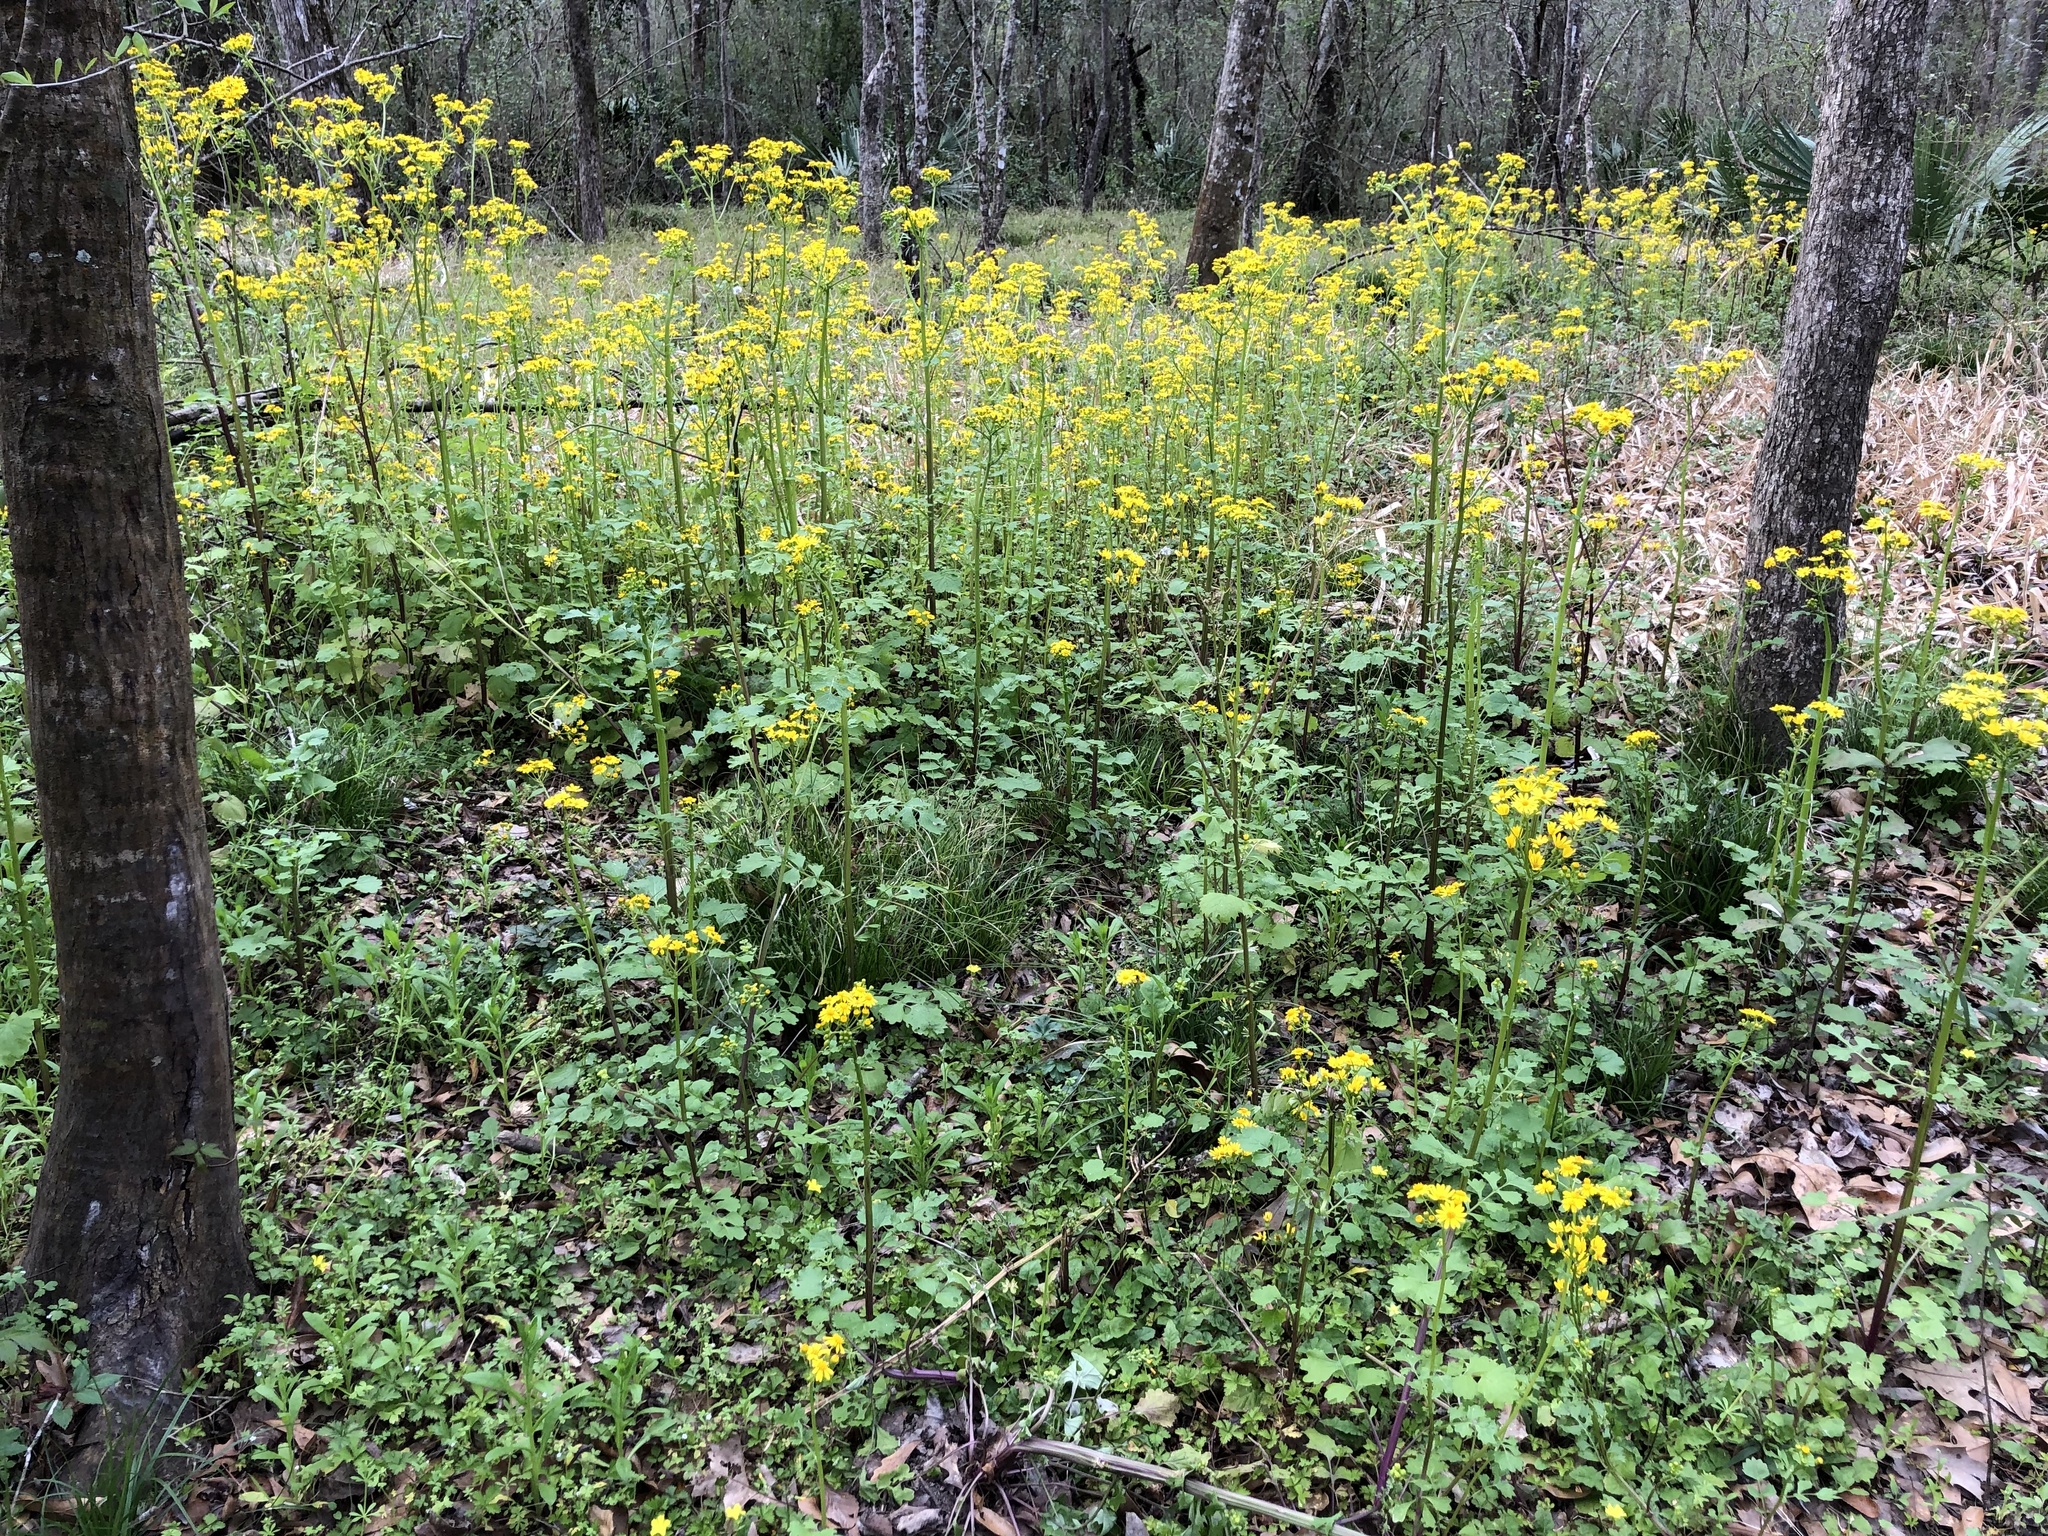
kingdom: Plantae
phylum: Tracheophyta
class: Magnoliopsida
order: Asterales
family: Asteraceae
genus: Packera
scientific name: Packera glabella
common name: Butterweed
